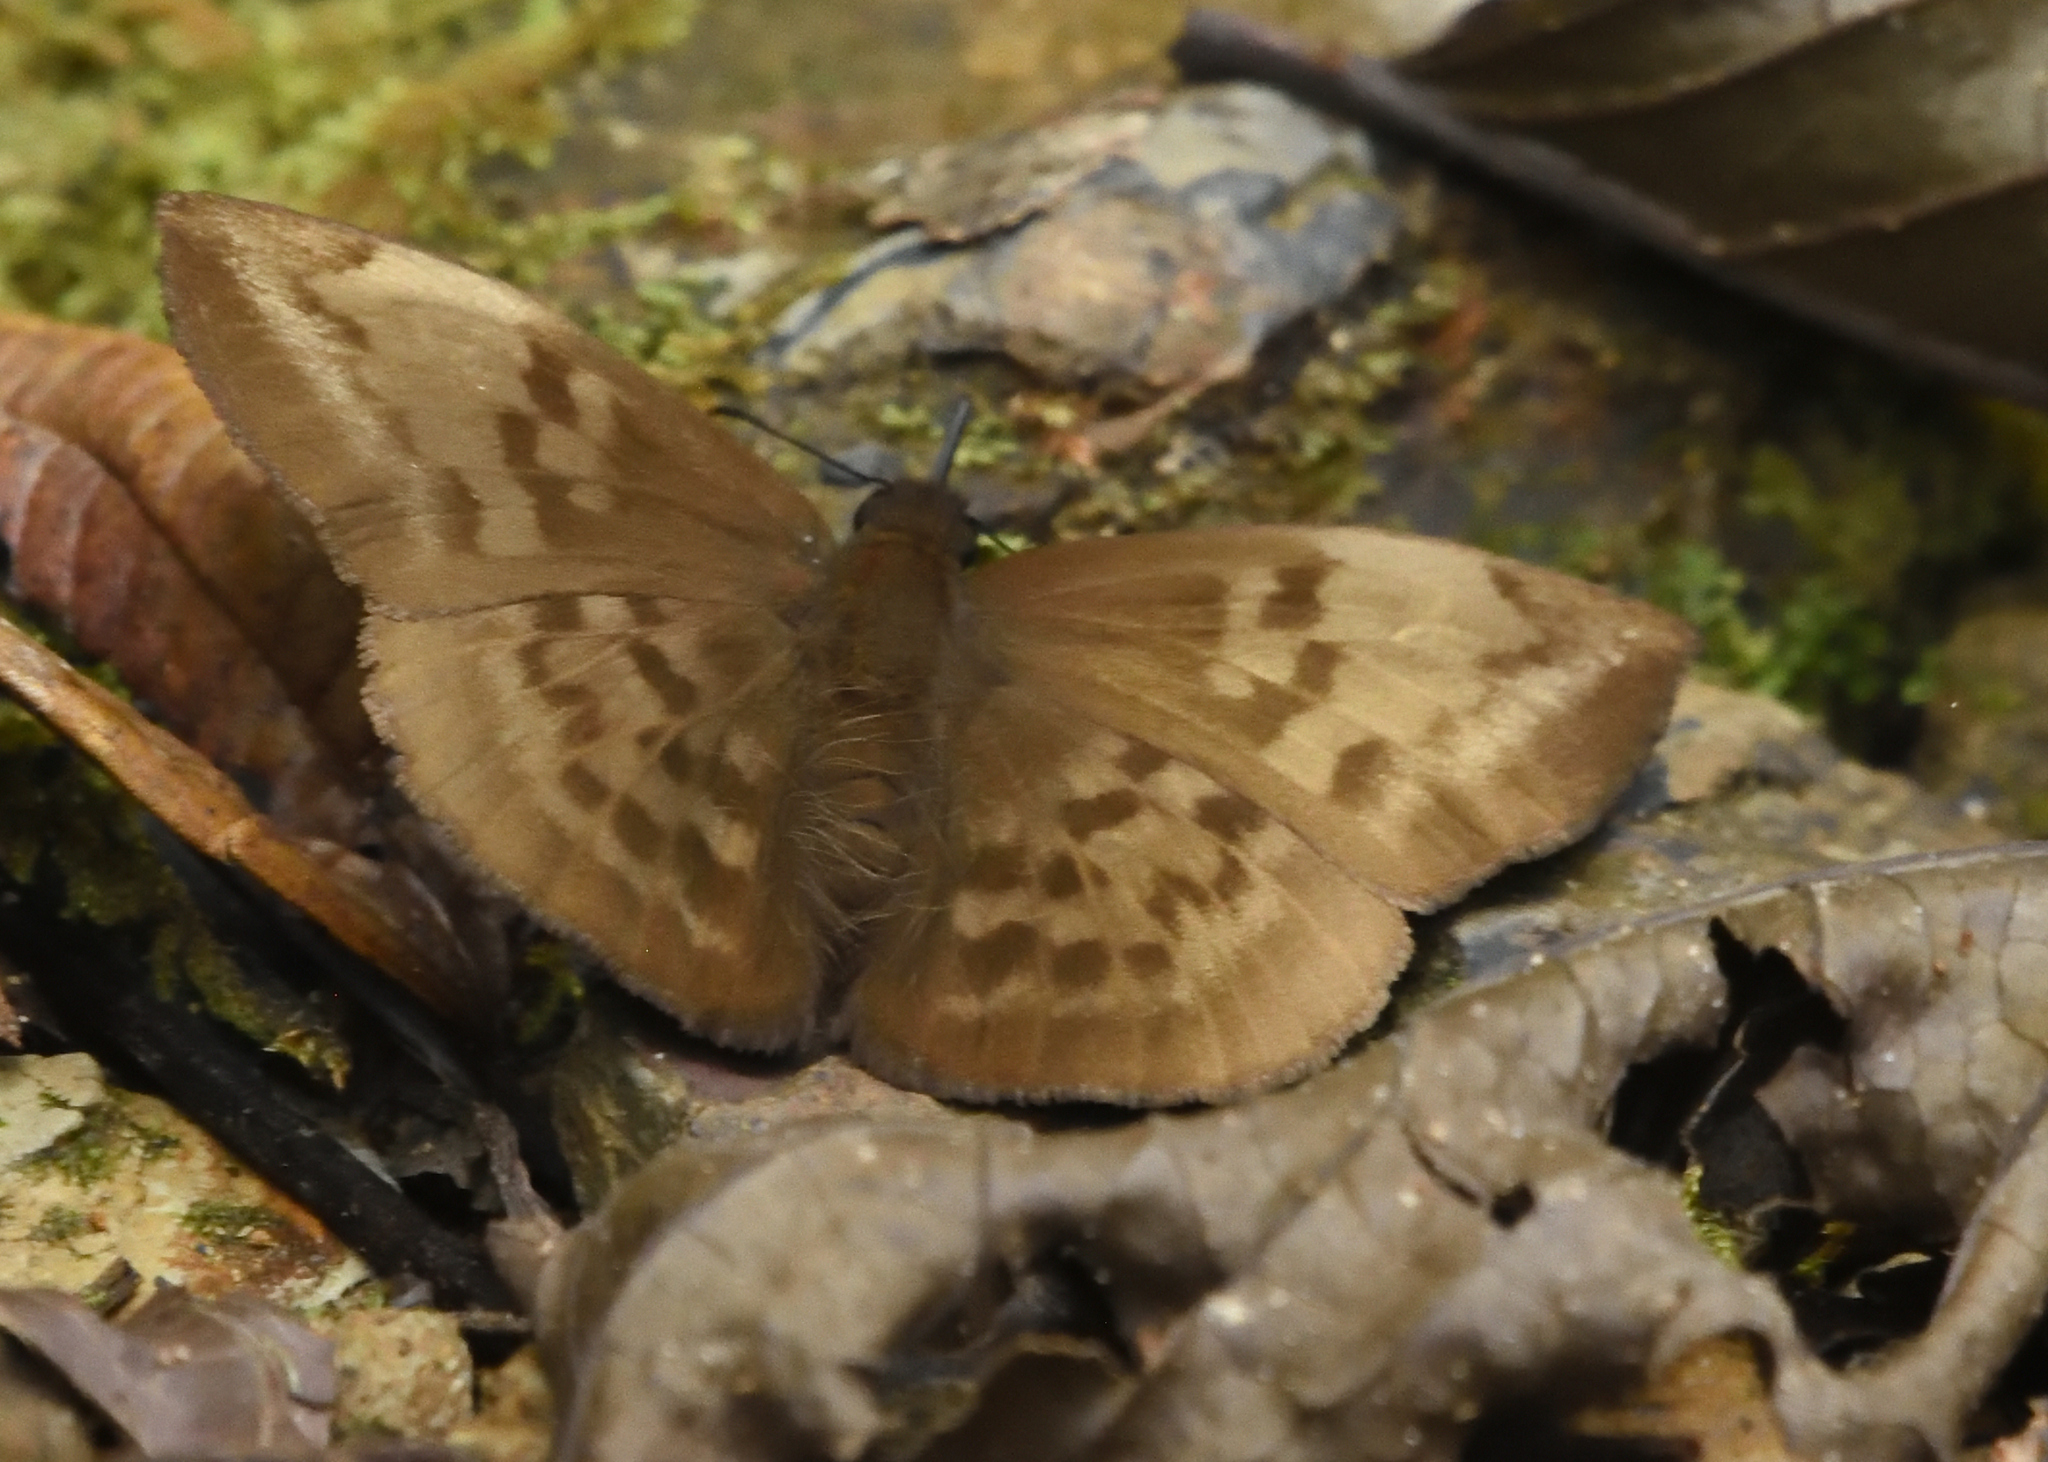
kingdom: Animalia
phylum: Arthropoda
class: Insecta
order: Lepidoptera
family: Hesperiidae
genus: Achlyodes
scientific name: Achlyodes pallida
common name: Pale sicklewing
